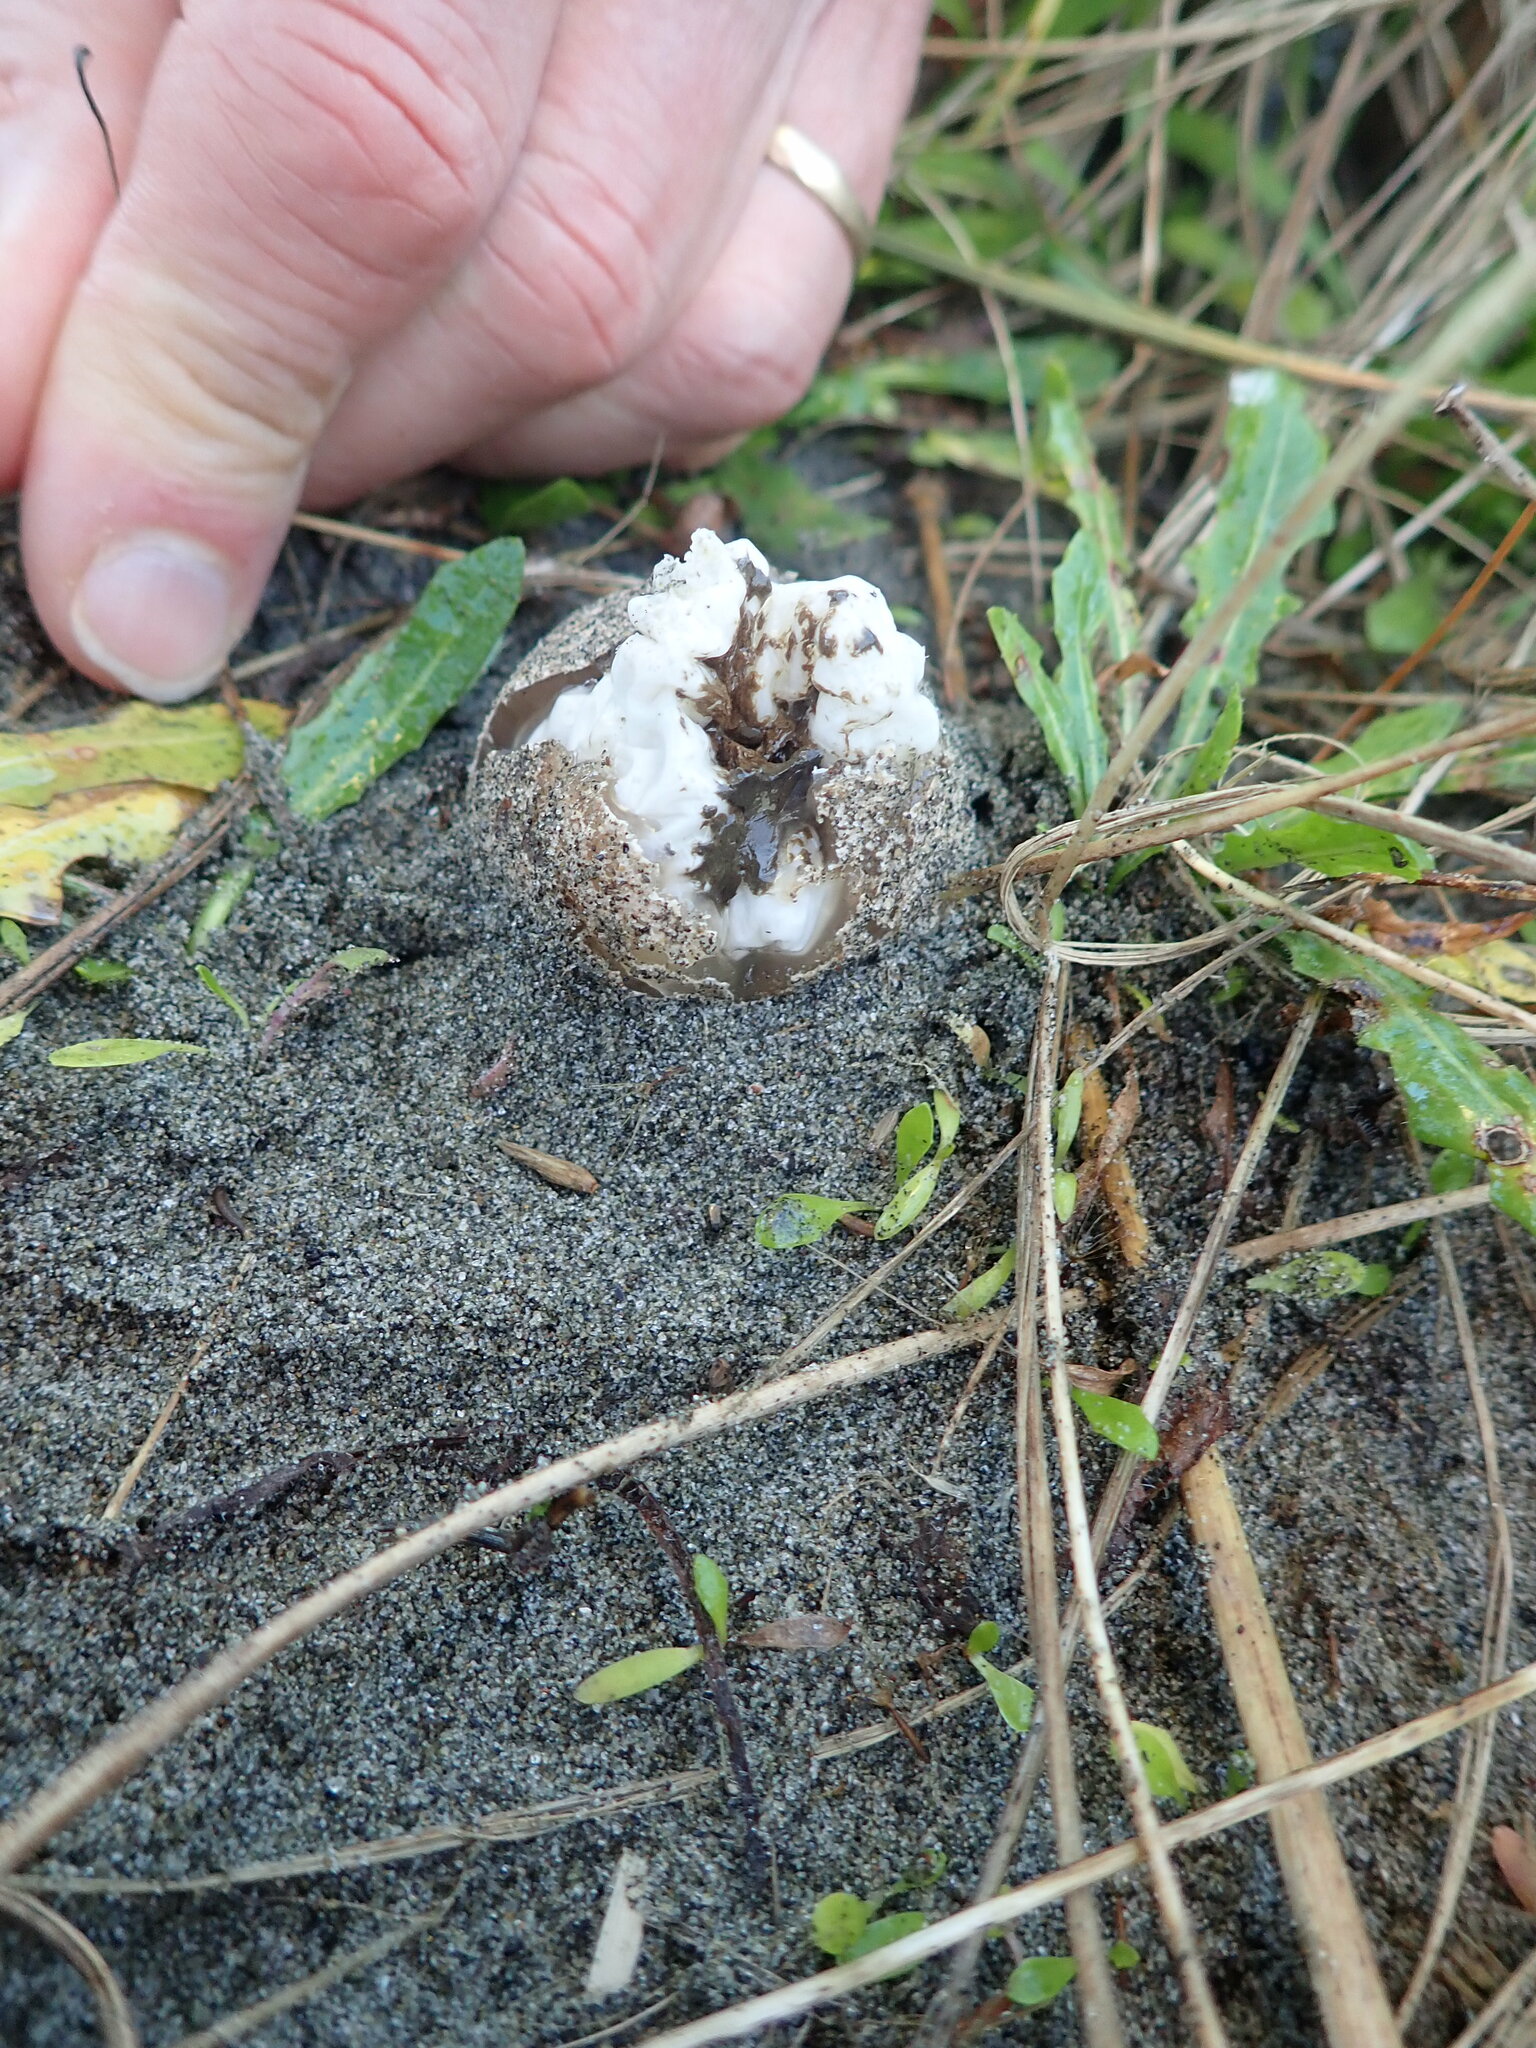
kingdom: Fungi
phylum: Basidiomycota
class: Agaricomycetes
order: Phallales
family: Phallaceae
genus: Ileodictyon
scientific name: Ileodictyon cibarium
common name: Basket fungus
